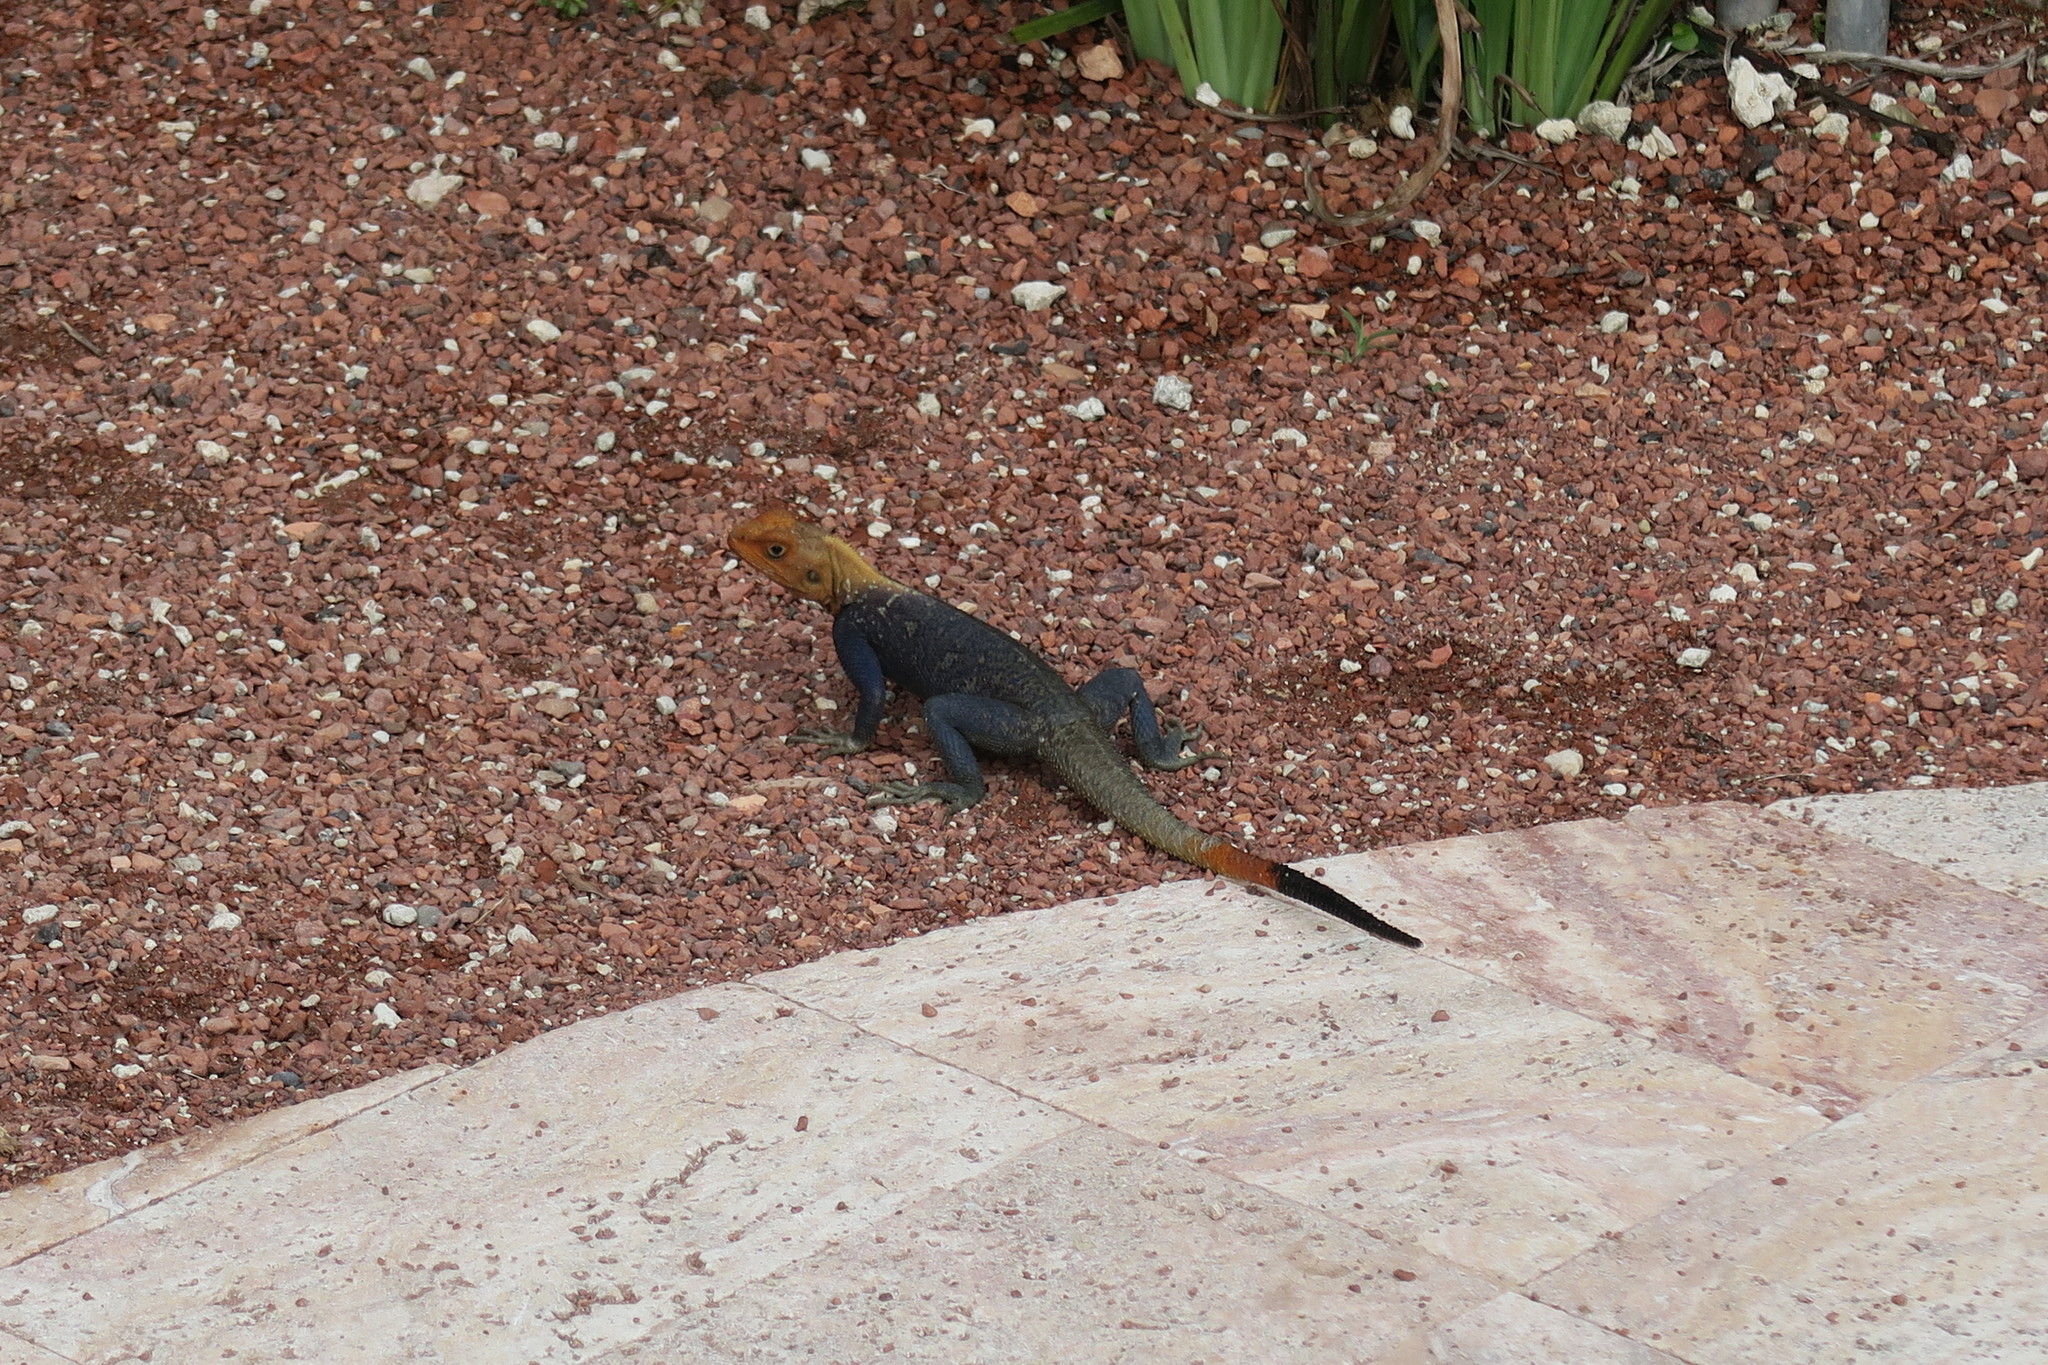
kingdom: Animalia
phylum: Chordata
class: Squamata
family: Agamidae
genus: Agama
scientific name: Agama picticauda
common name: Red-headed agama
